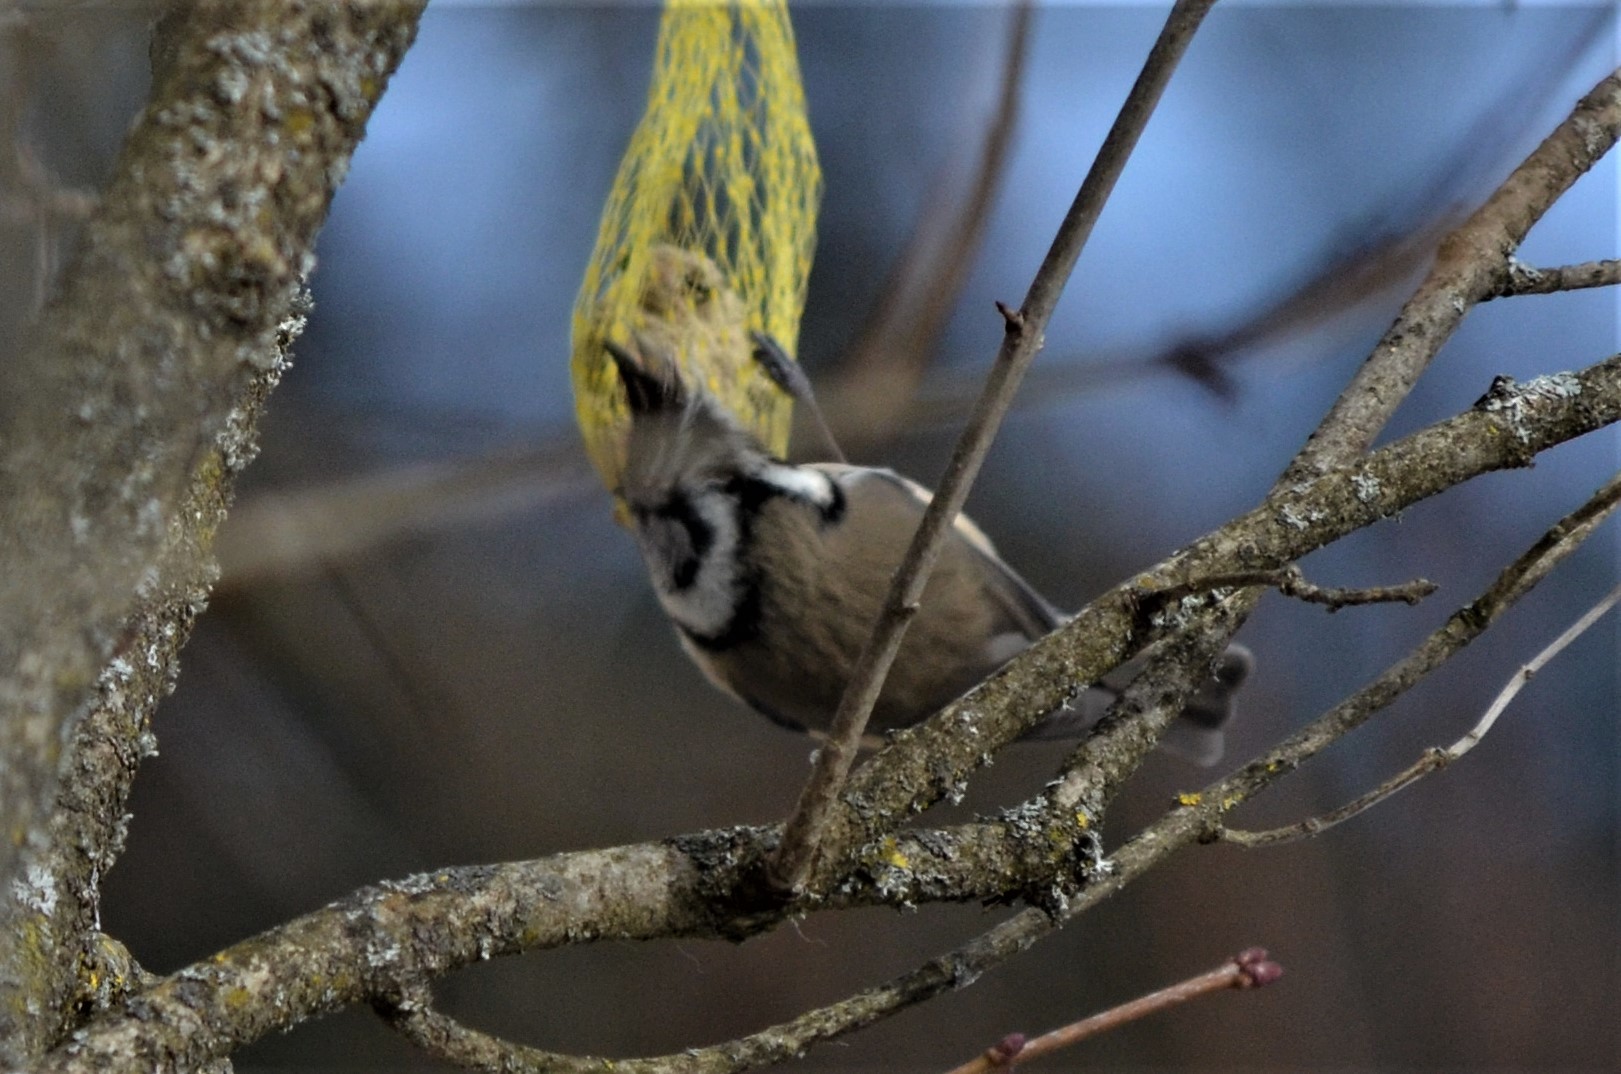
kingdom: Animalia
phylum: Chordata
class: Aves
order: Passeriformes
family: Paridae
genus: Lophophanes
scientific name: Lophophanes cristatus
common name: European crested tit
